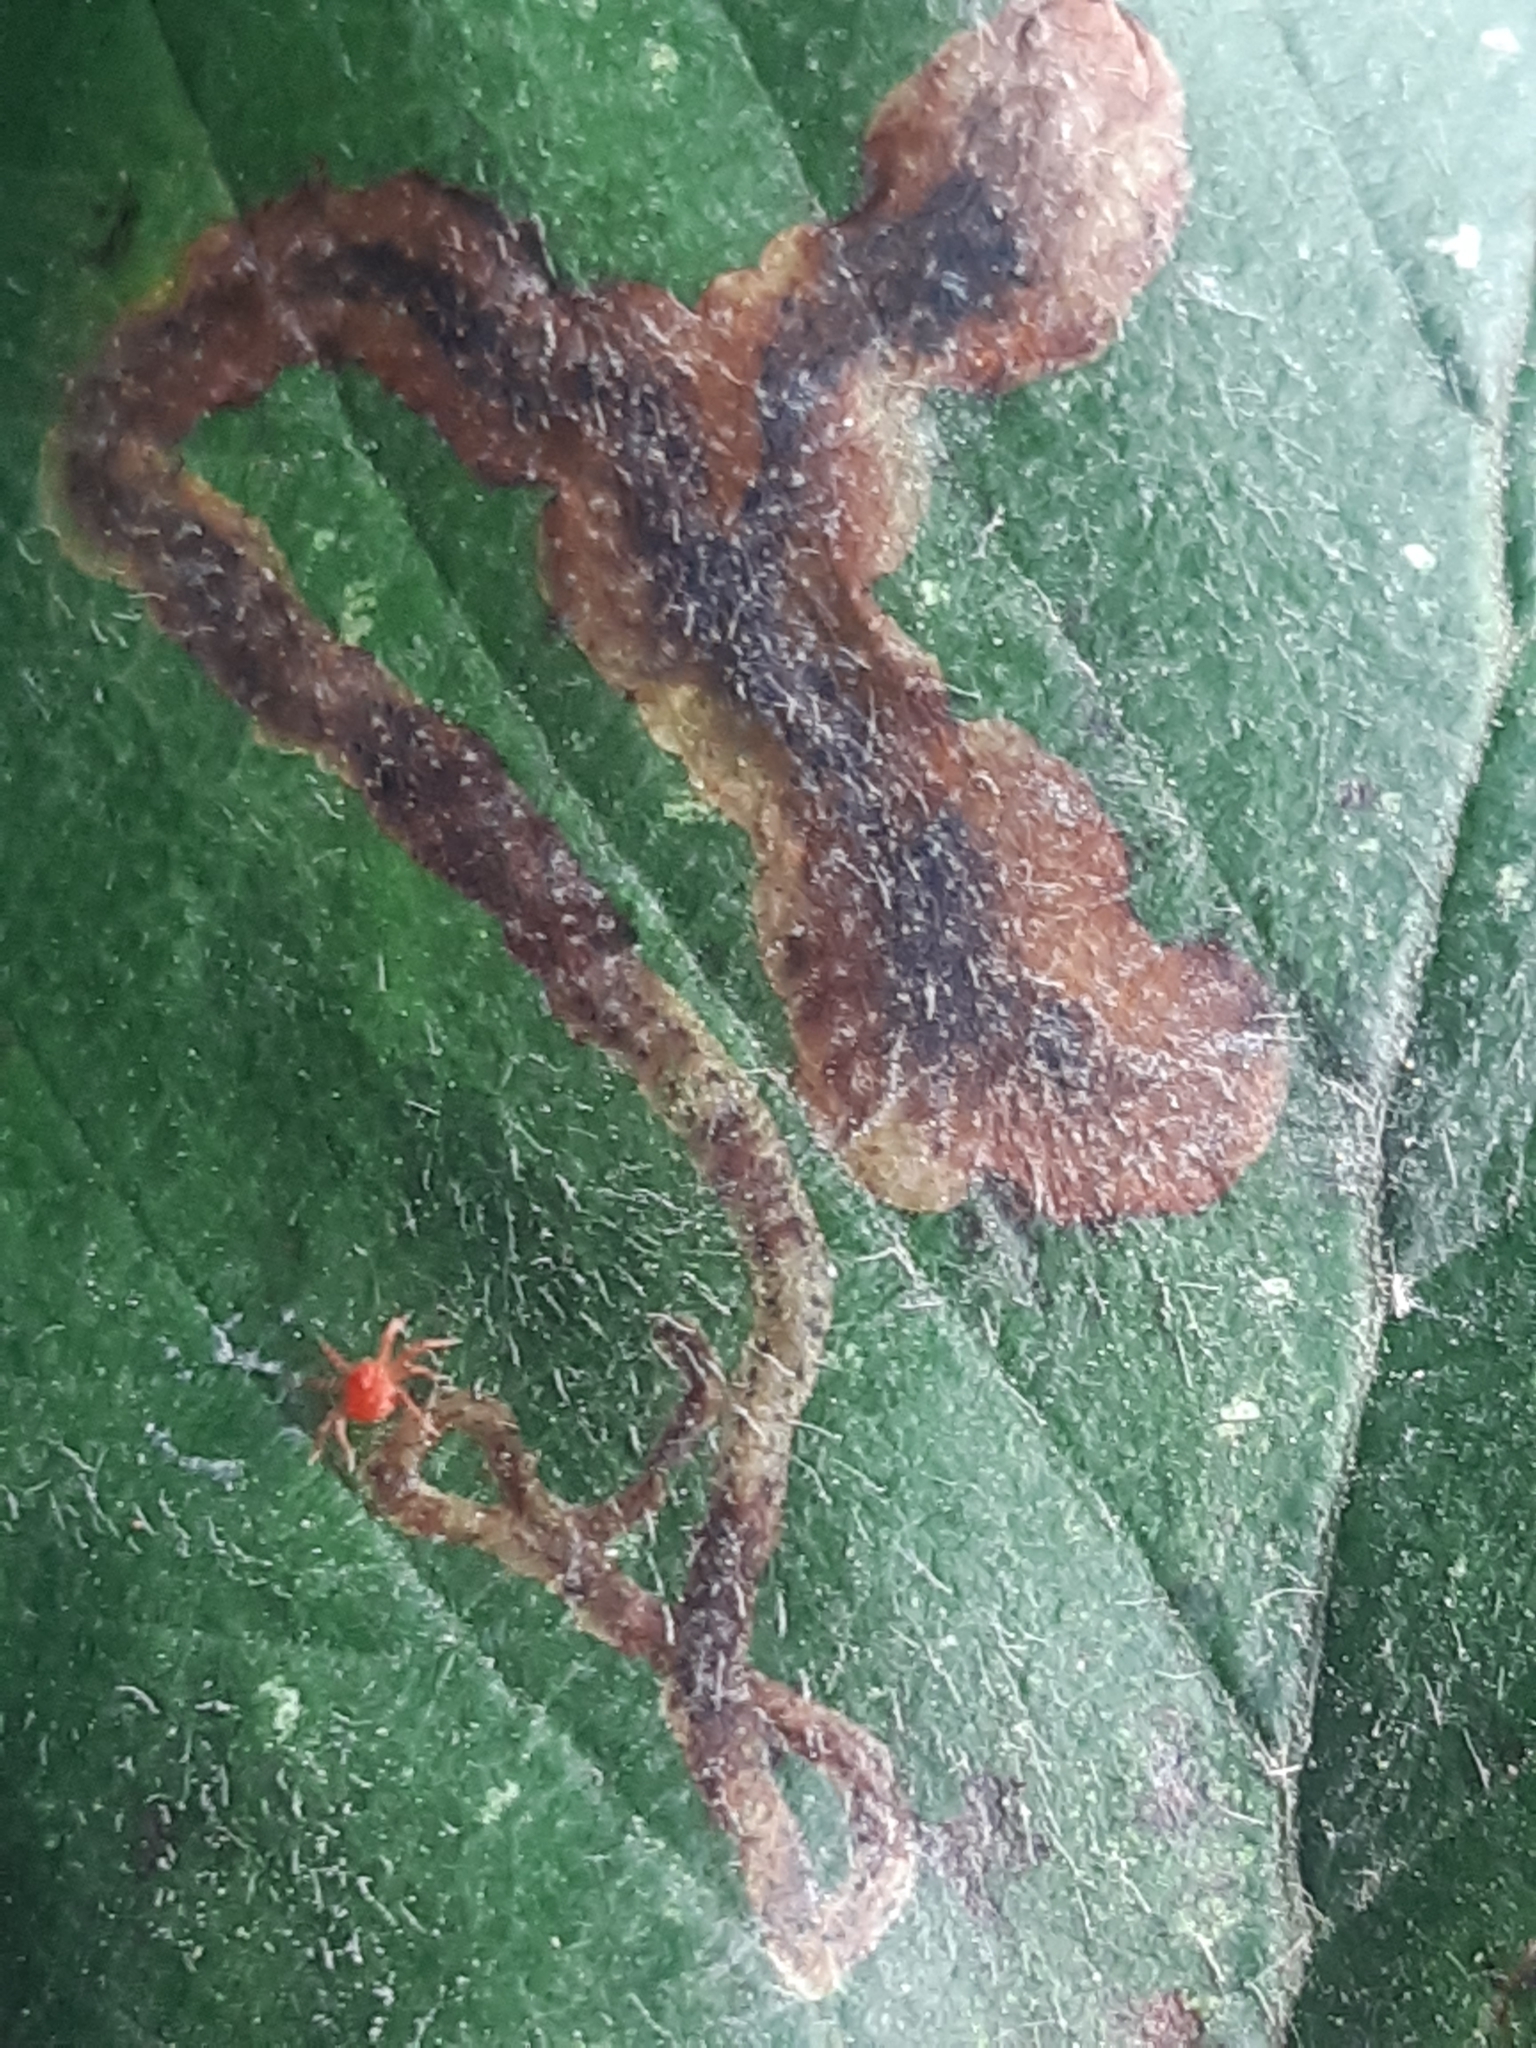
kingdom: Animalia
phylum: Arthropoda
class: Insecta
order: Diptera
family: Agromyzidae
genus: Agromyza
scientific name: Agromyza alnivora
